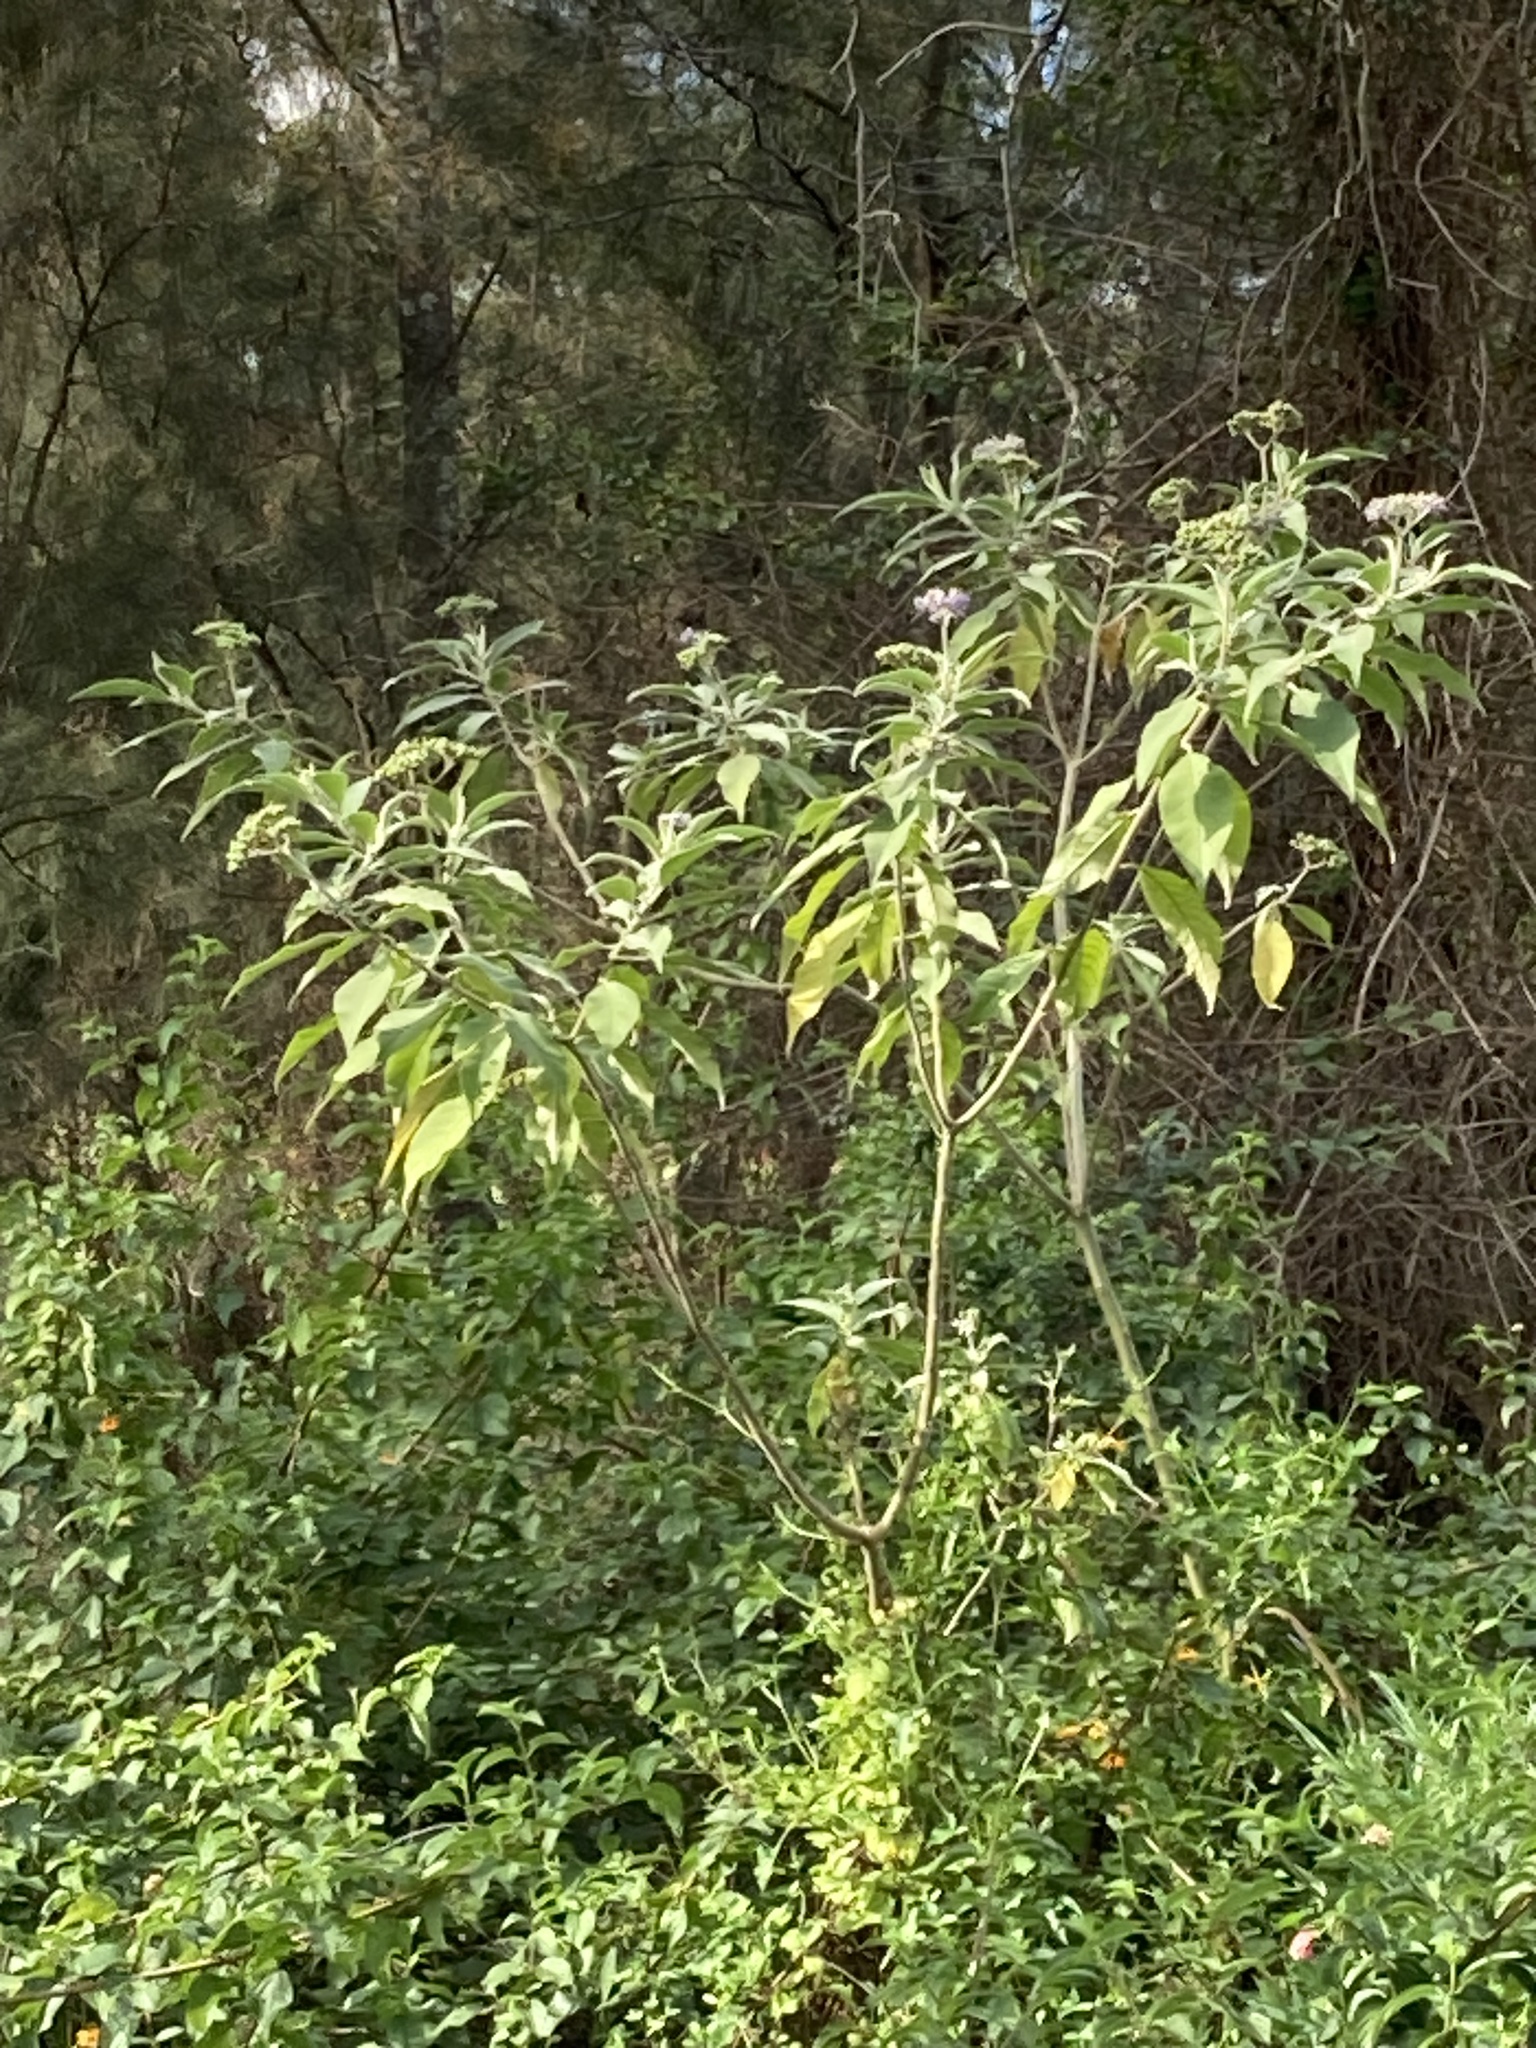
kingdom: Plantae
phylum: Tracheophyta
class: Magnoliopsida
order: Solanales
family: Solanaceae
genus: Solanum
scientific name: Solanum mauritianum
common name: Earleaf nightshade
